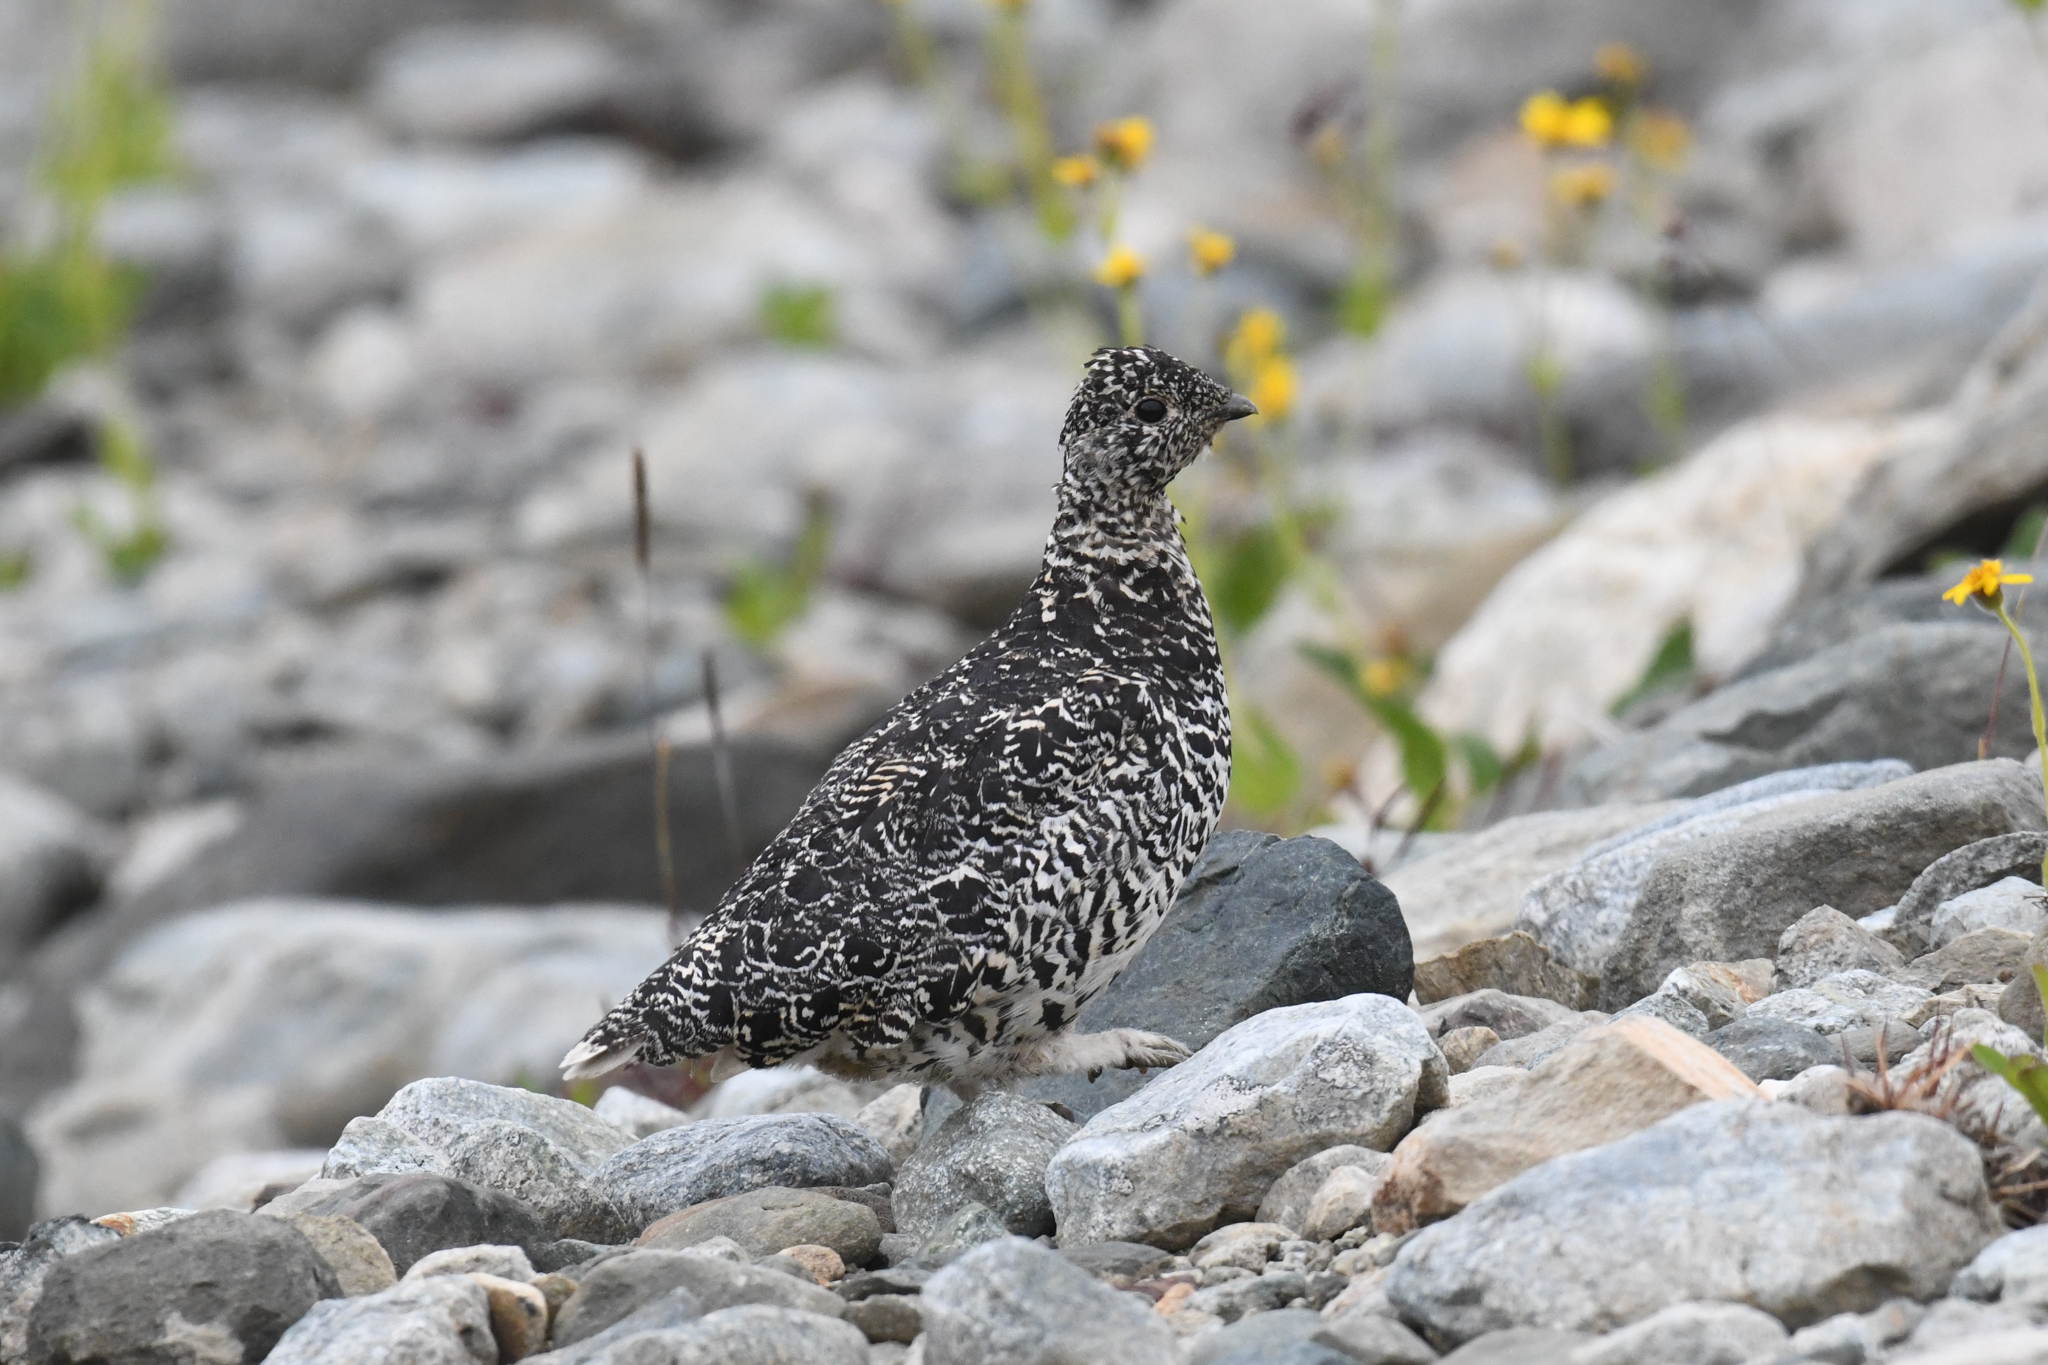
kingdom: Animalia
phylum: Chordata
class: Aves
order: Galliformes
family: Phasianidae
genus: Lagopus
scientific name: Lagopus leucura
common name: White-tailed ptarmigan
